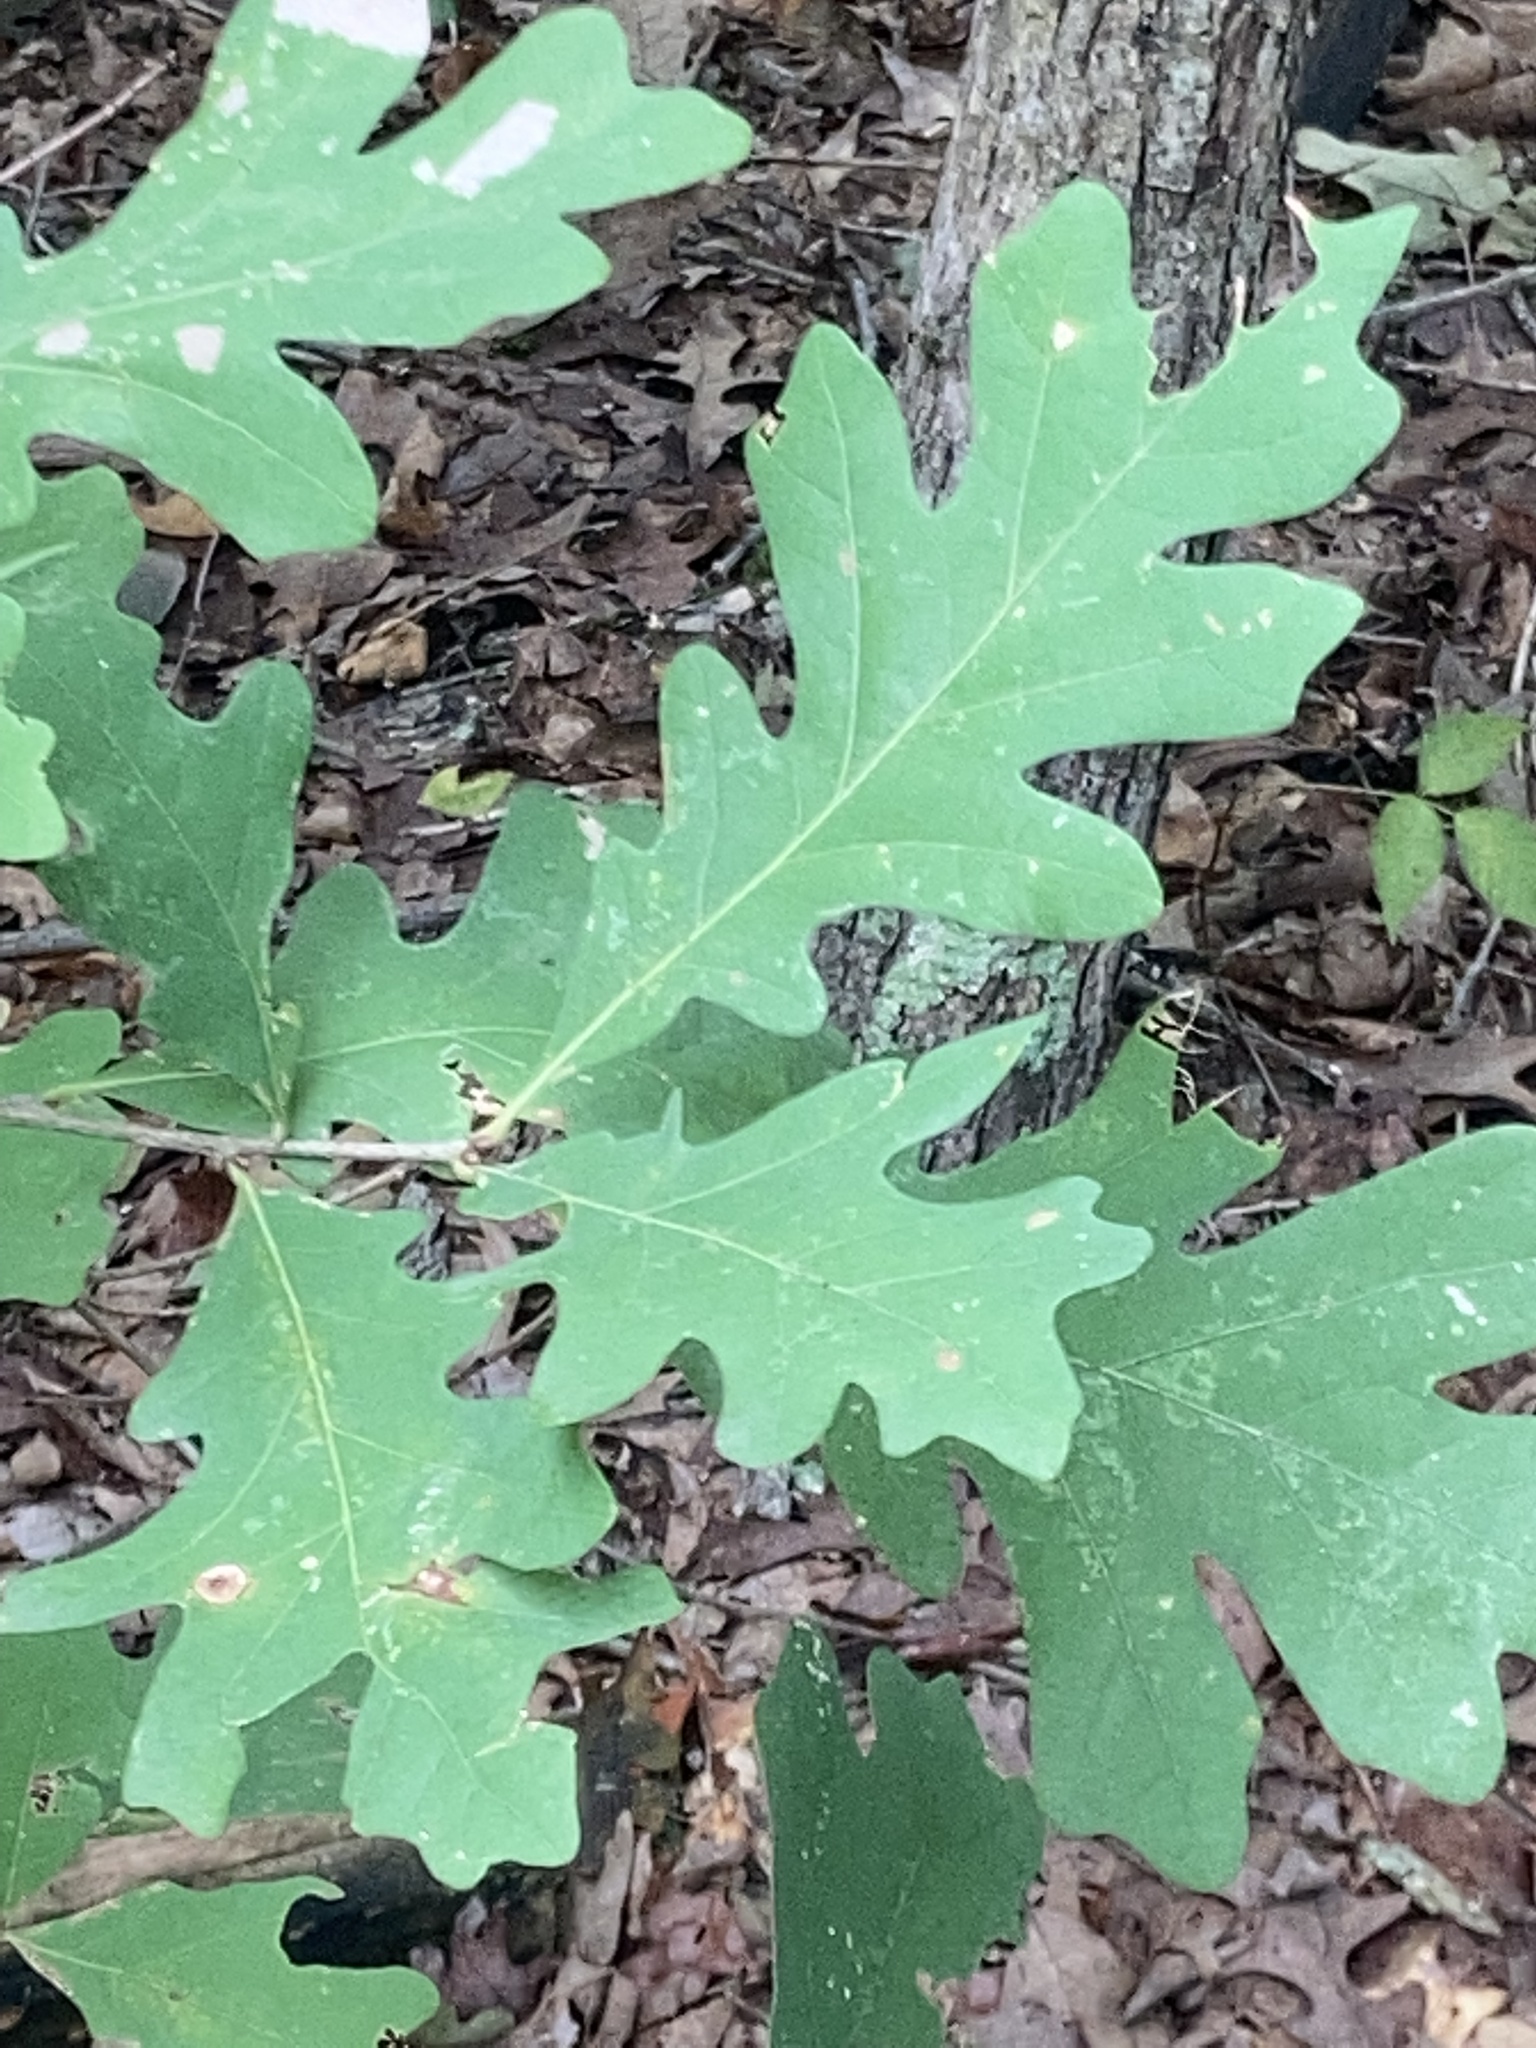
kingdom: Plantae
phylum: Tracheophyta
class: Magnoliopsida
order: Fagales
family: Fagaceae
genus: Quercus
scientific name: Quercus alba
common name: White oak
